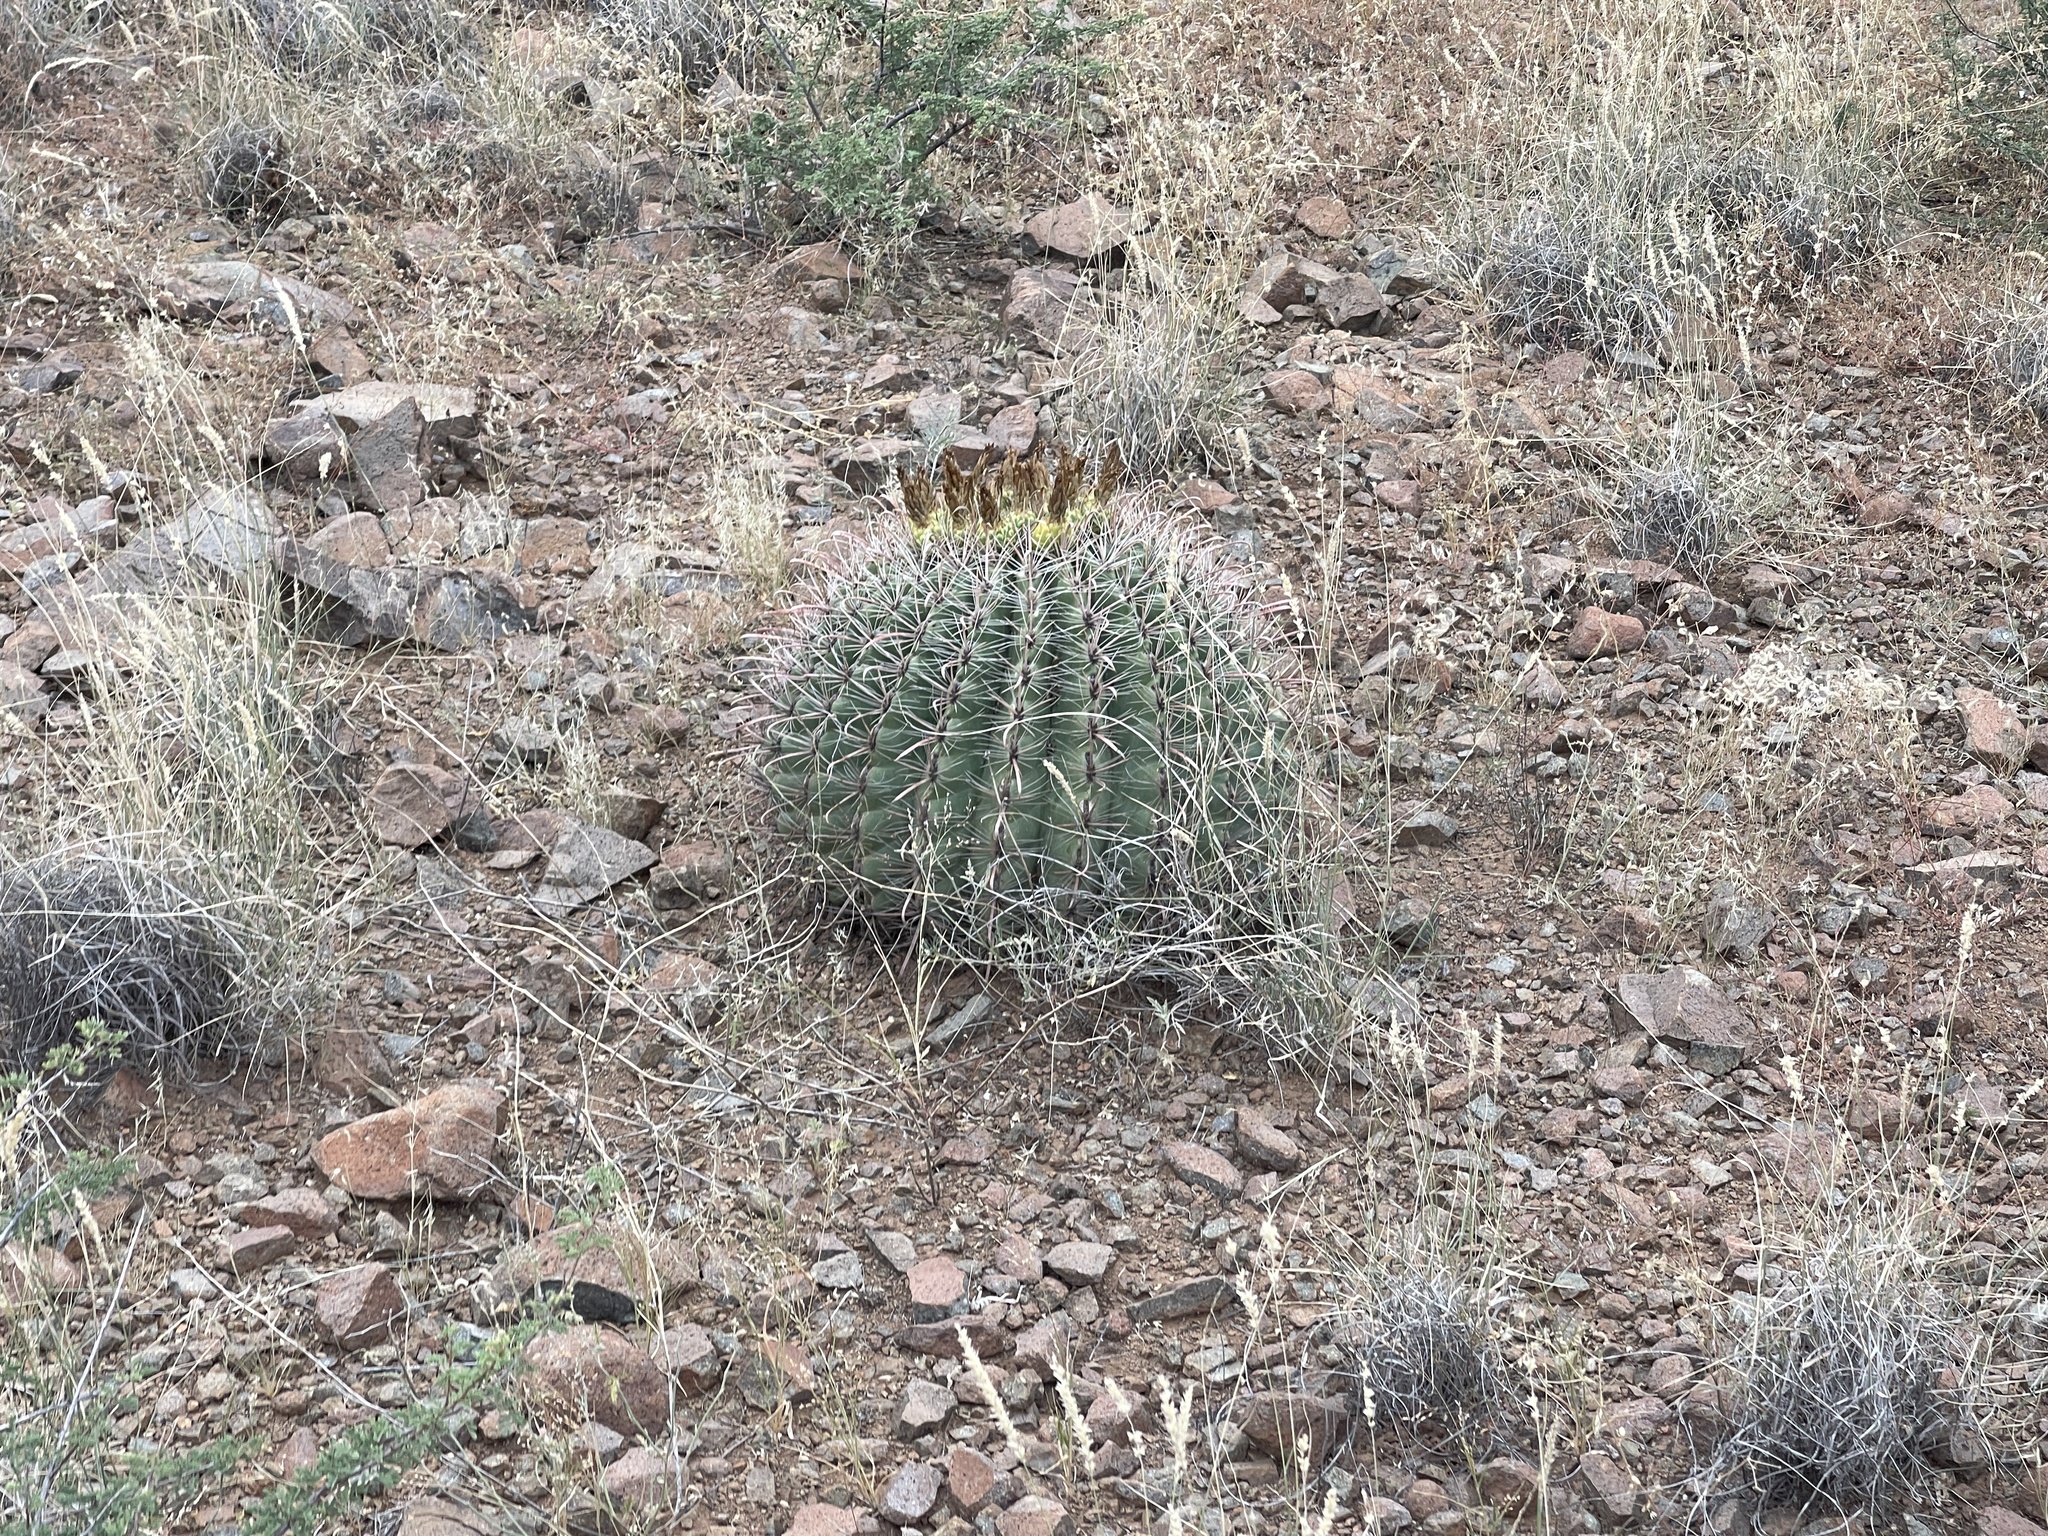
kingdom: Plantae
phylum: Tracheophyta
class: Magnoliopsida
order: Caryophyllales
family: Cactaceae
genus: Ferocactus
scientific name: Ferocactus wislizeni
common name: Candy barrel cactus
